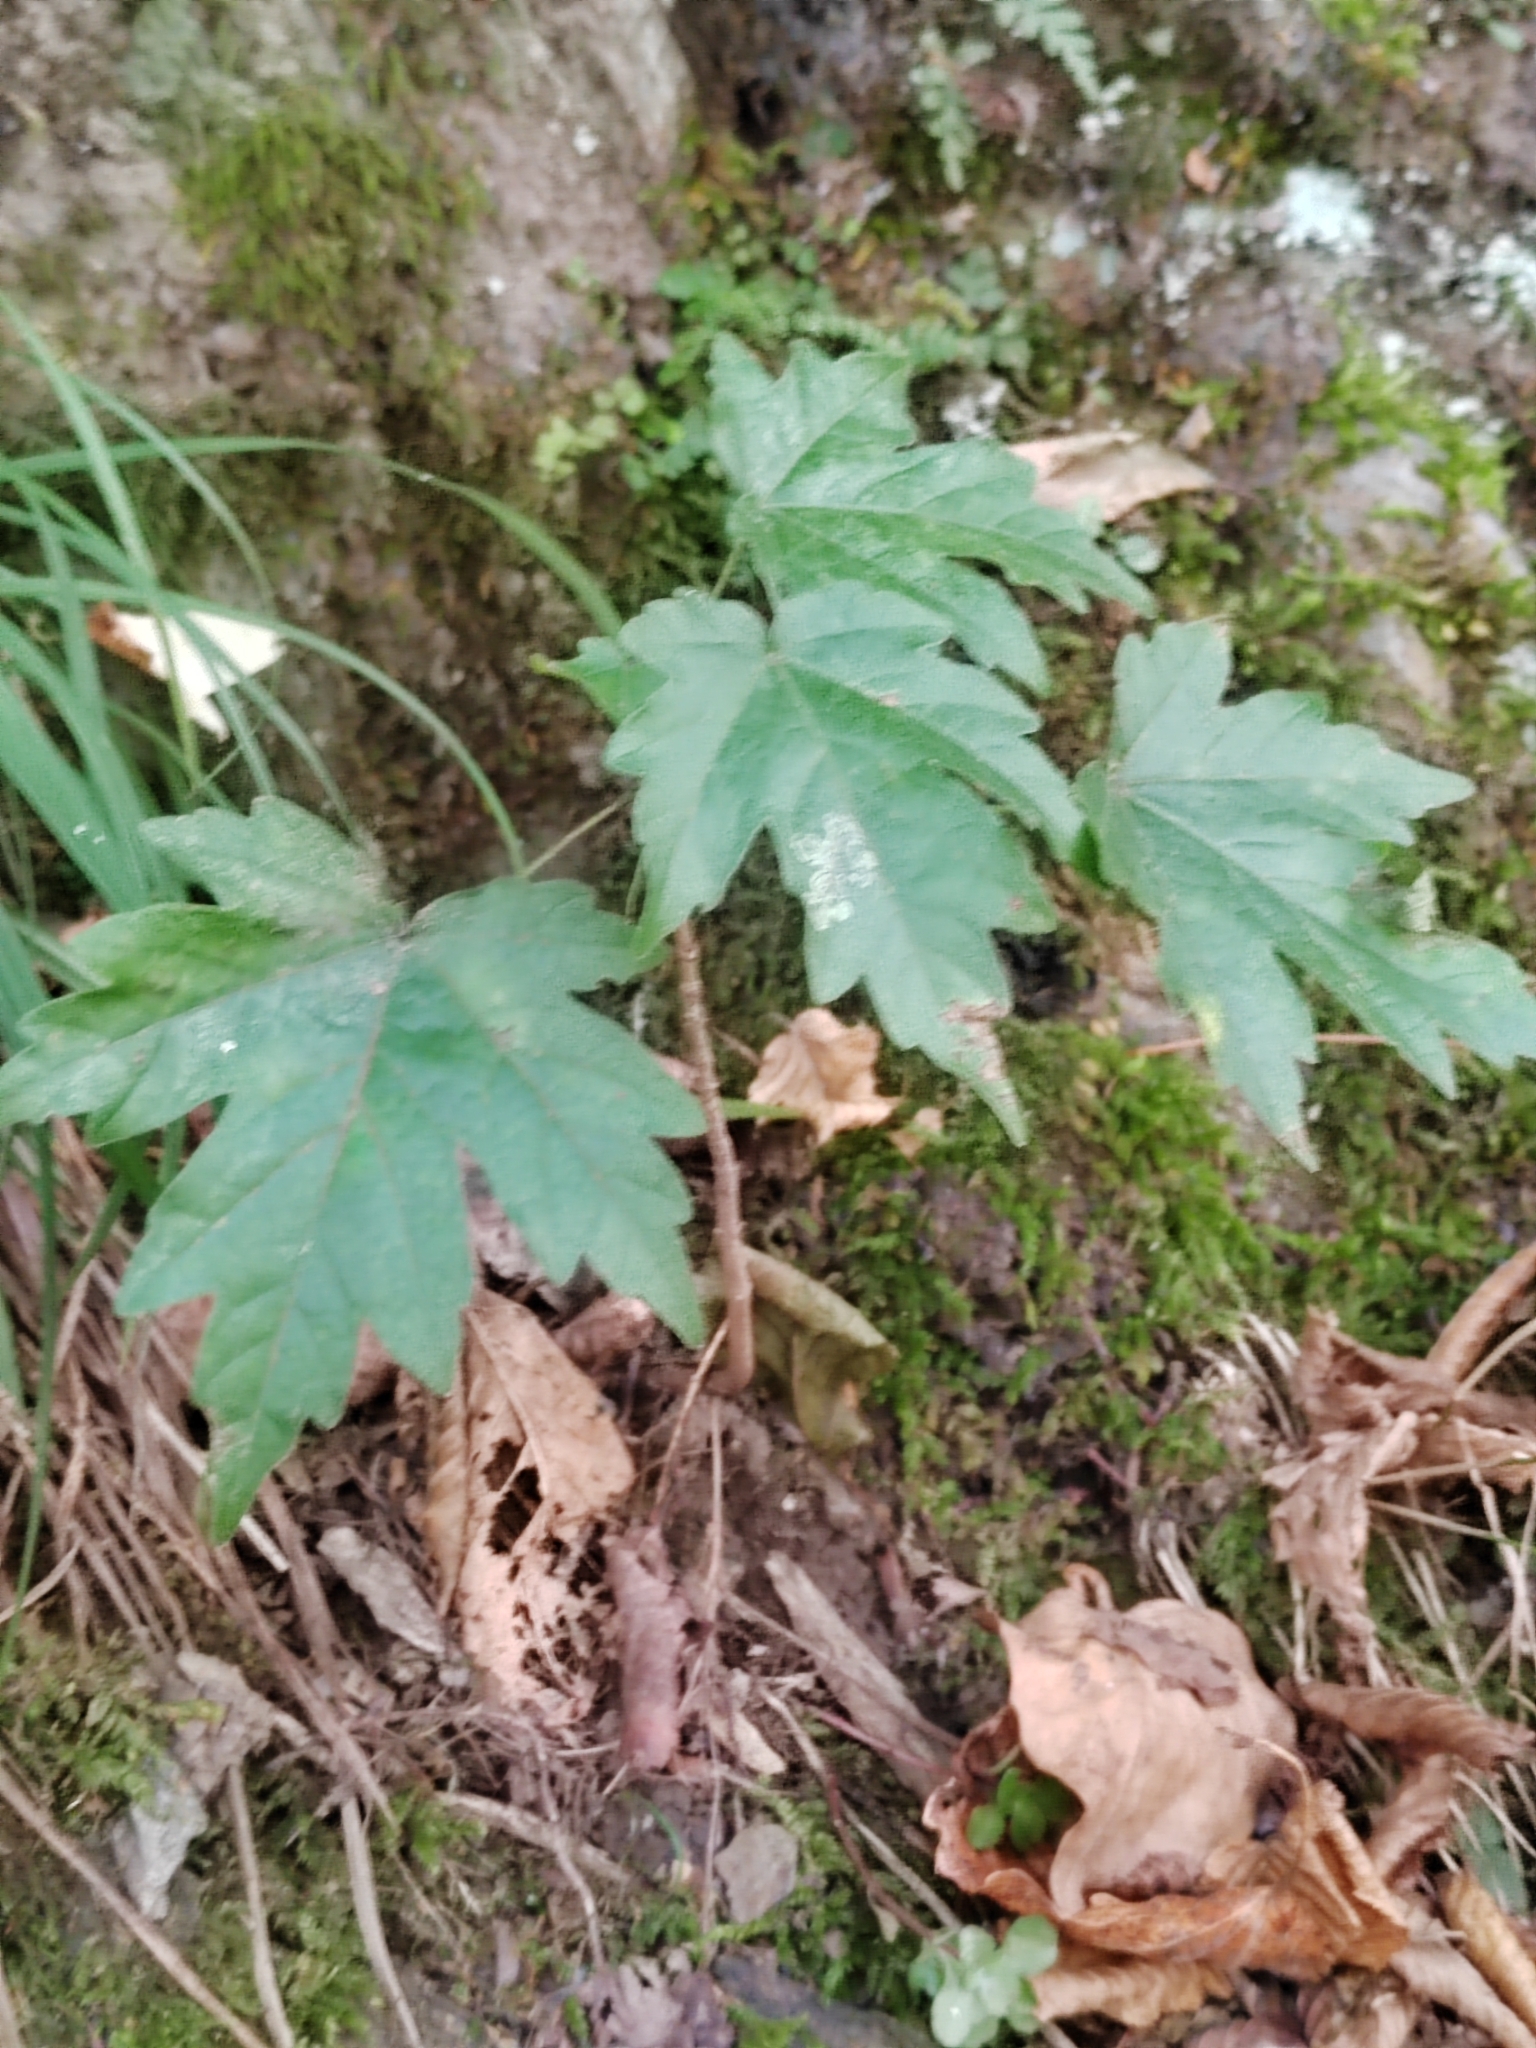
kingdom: Plantae
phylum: Tracheophyta
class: Magnoliopsida
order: Sapindales
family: Sapindaceae
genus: Acer
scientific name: Acer campestre
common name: Field maple
